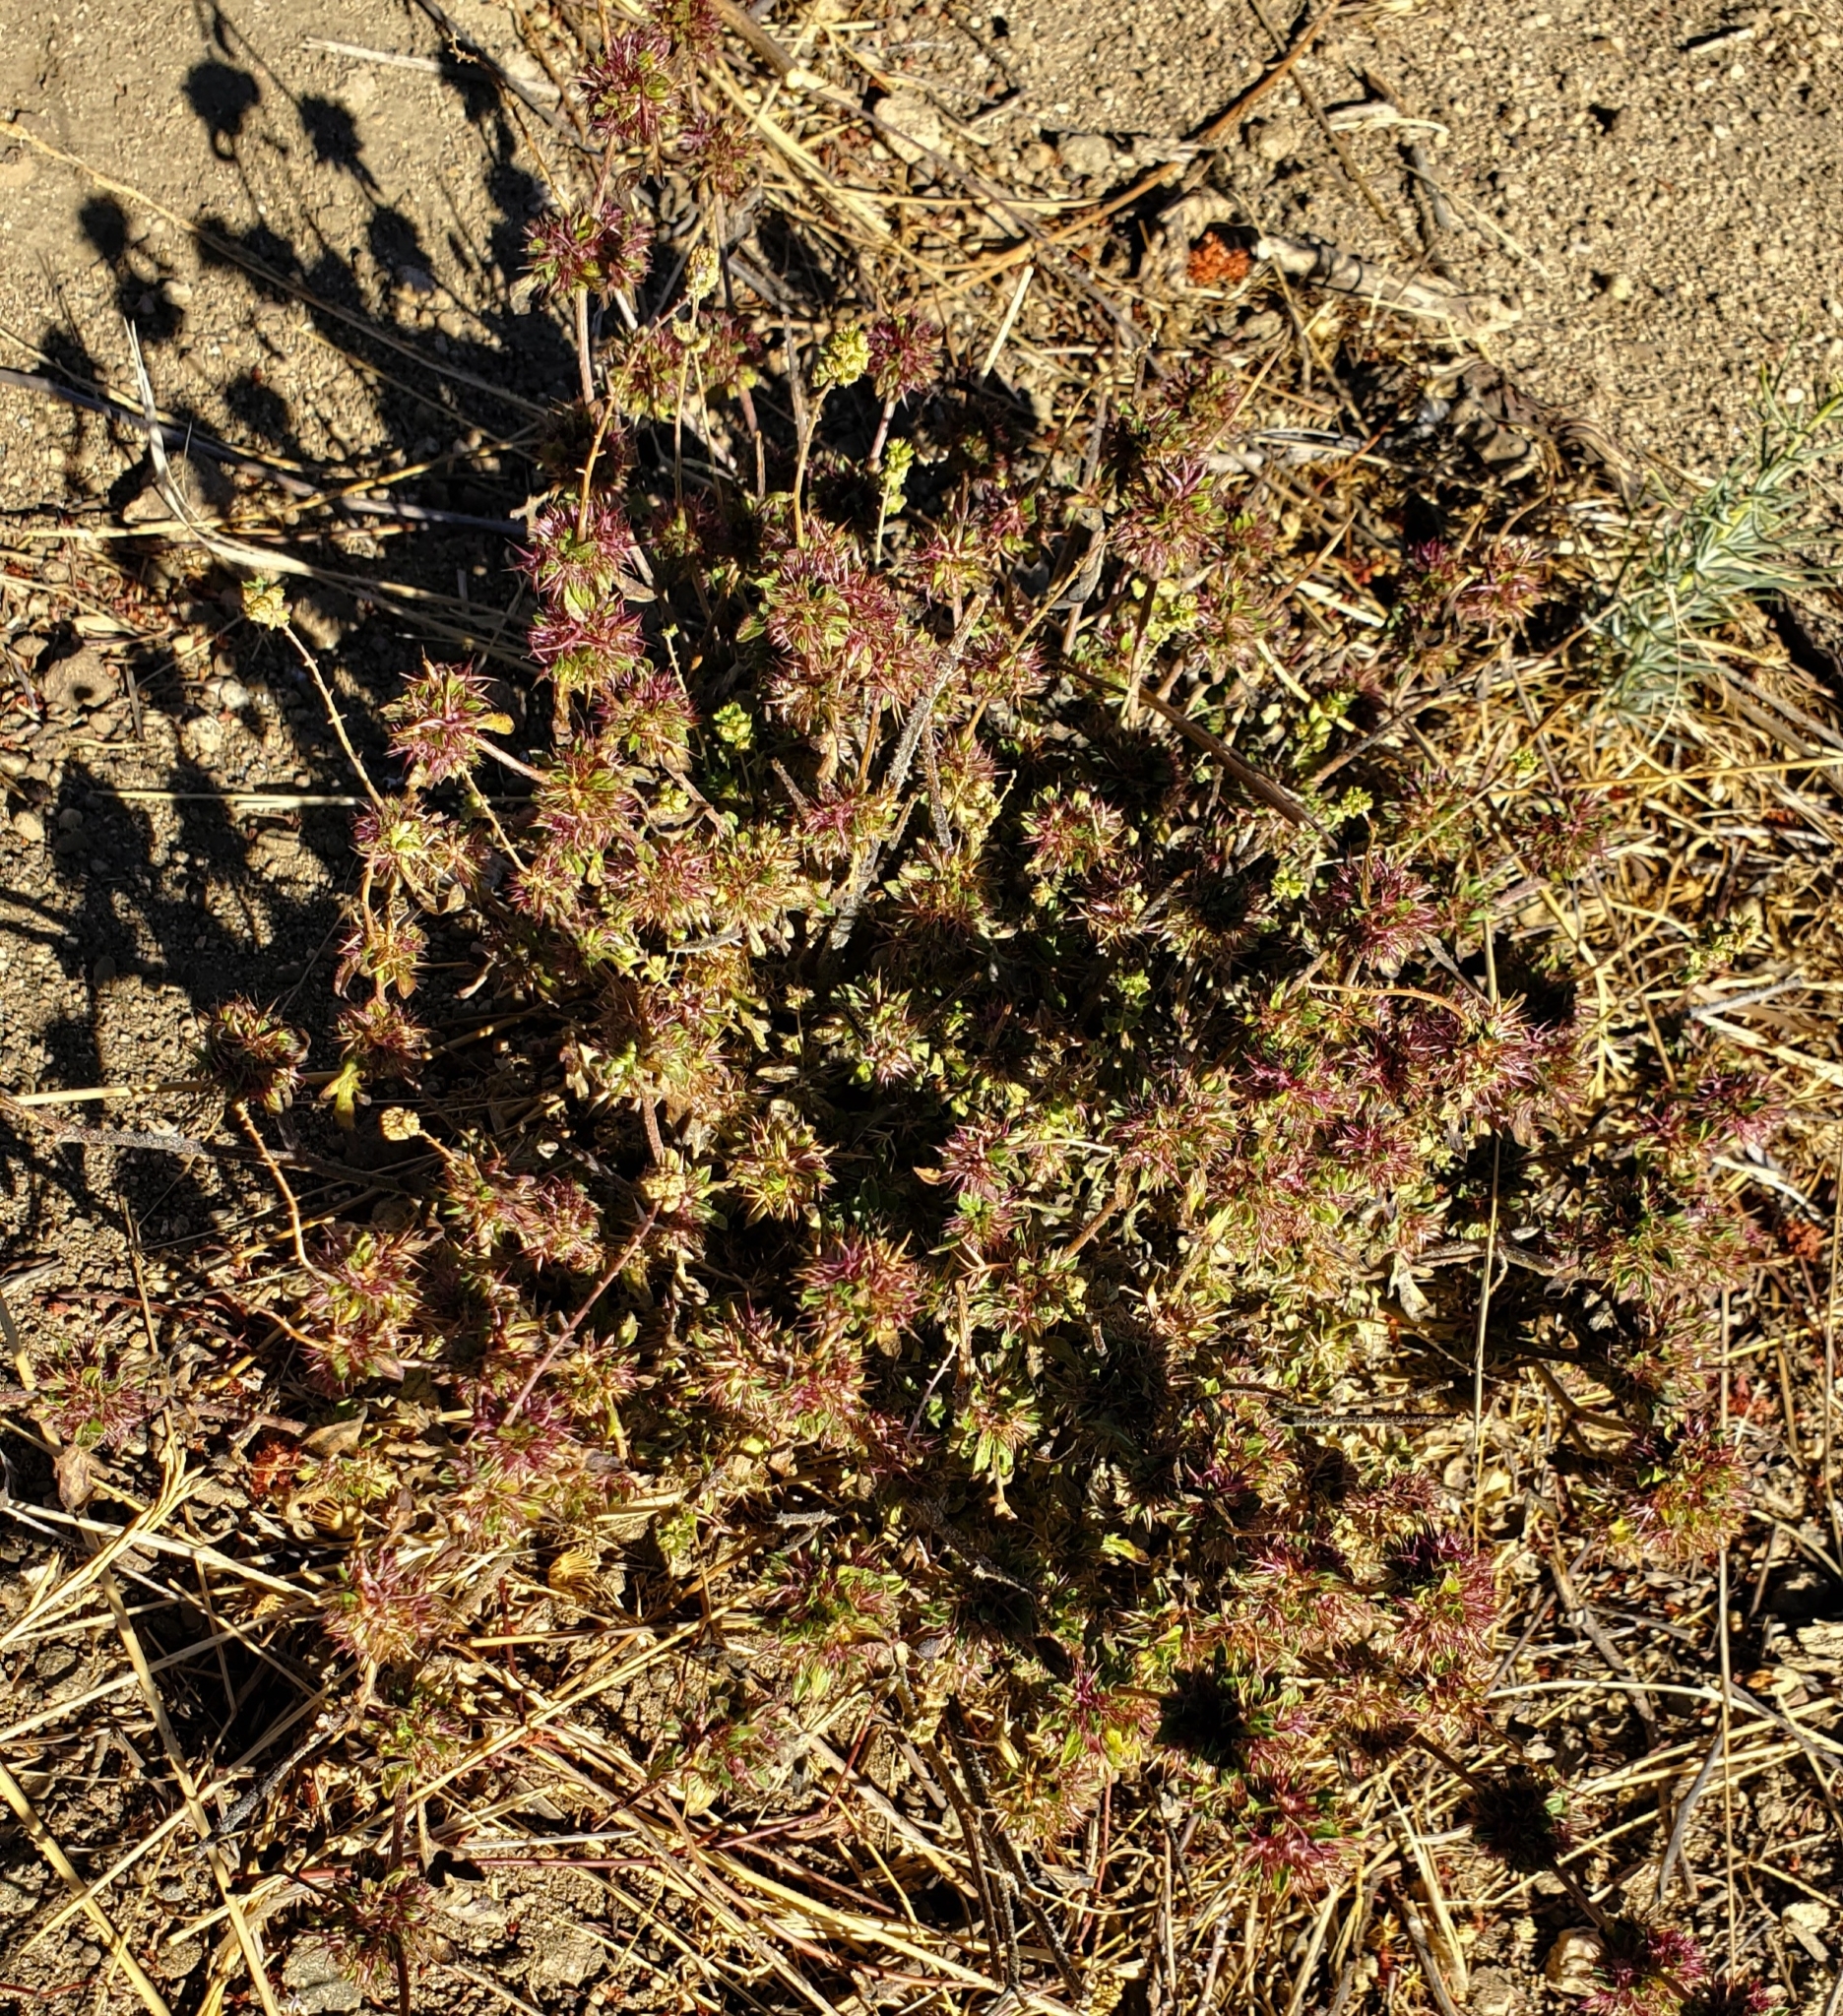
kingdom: Plantae
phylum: Tracheophyta
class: Magnoliopsida
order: Asterales
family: Asteraceae
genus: Ambrosia
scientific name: Ambrosia acanthicarpa
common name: Hooker's bur ragweed
